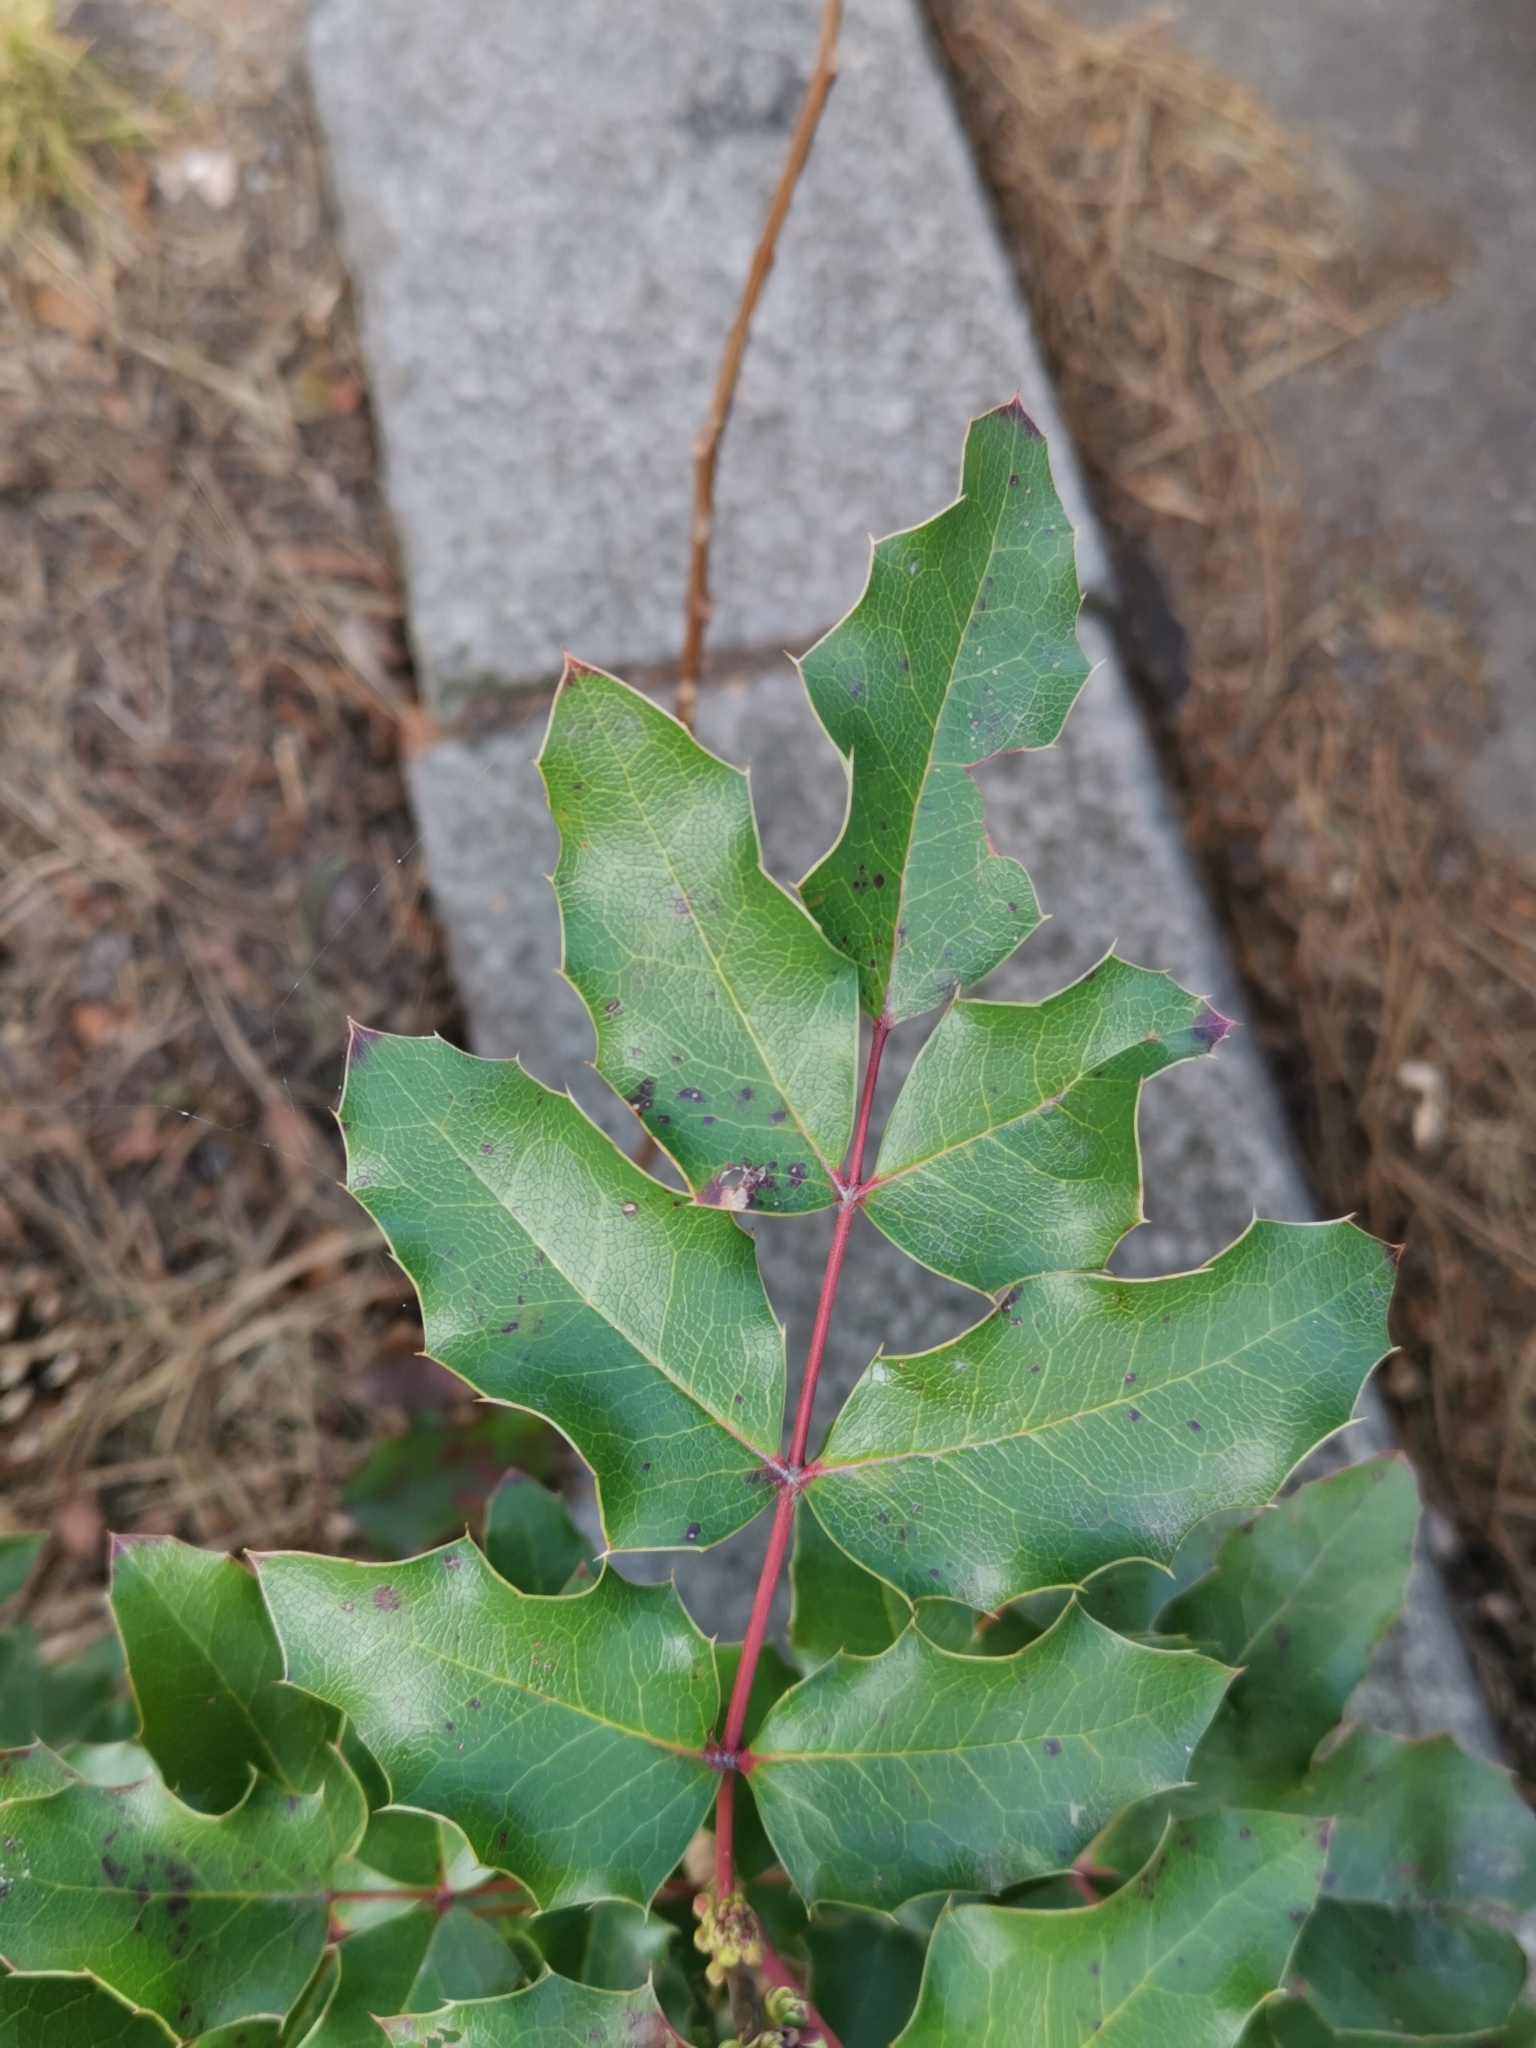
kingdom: Plantae
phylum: Tracheophyta
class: Magnoliopsida
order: Ranunculales
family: Berberidaceae
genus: Mahonia
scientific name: Mahonia aquifolium
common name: Oregon-grape
